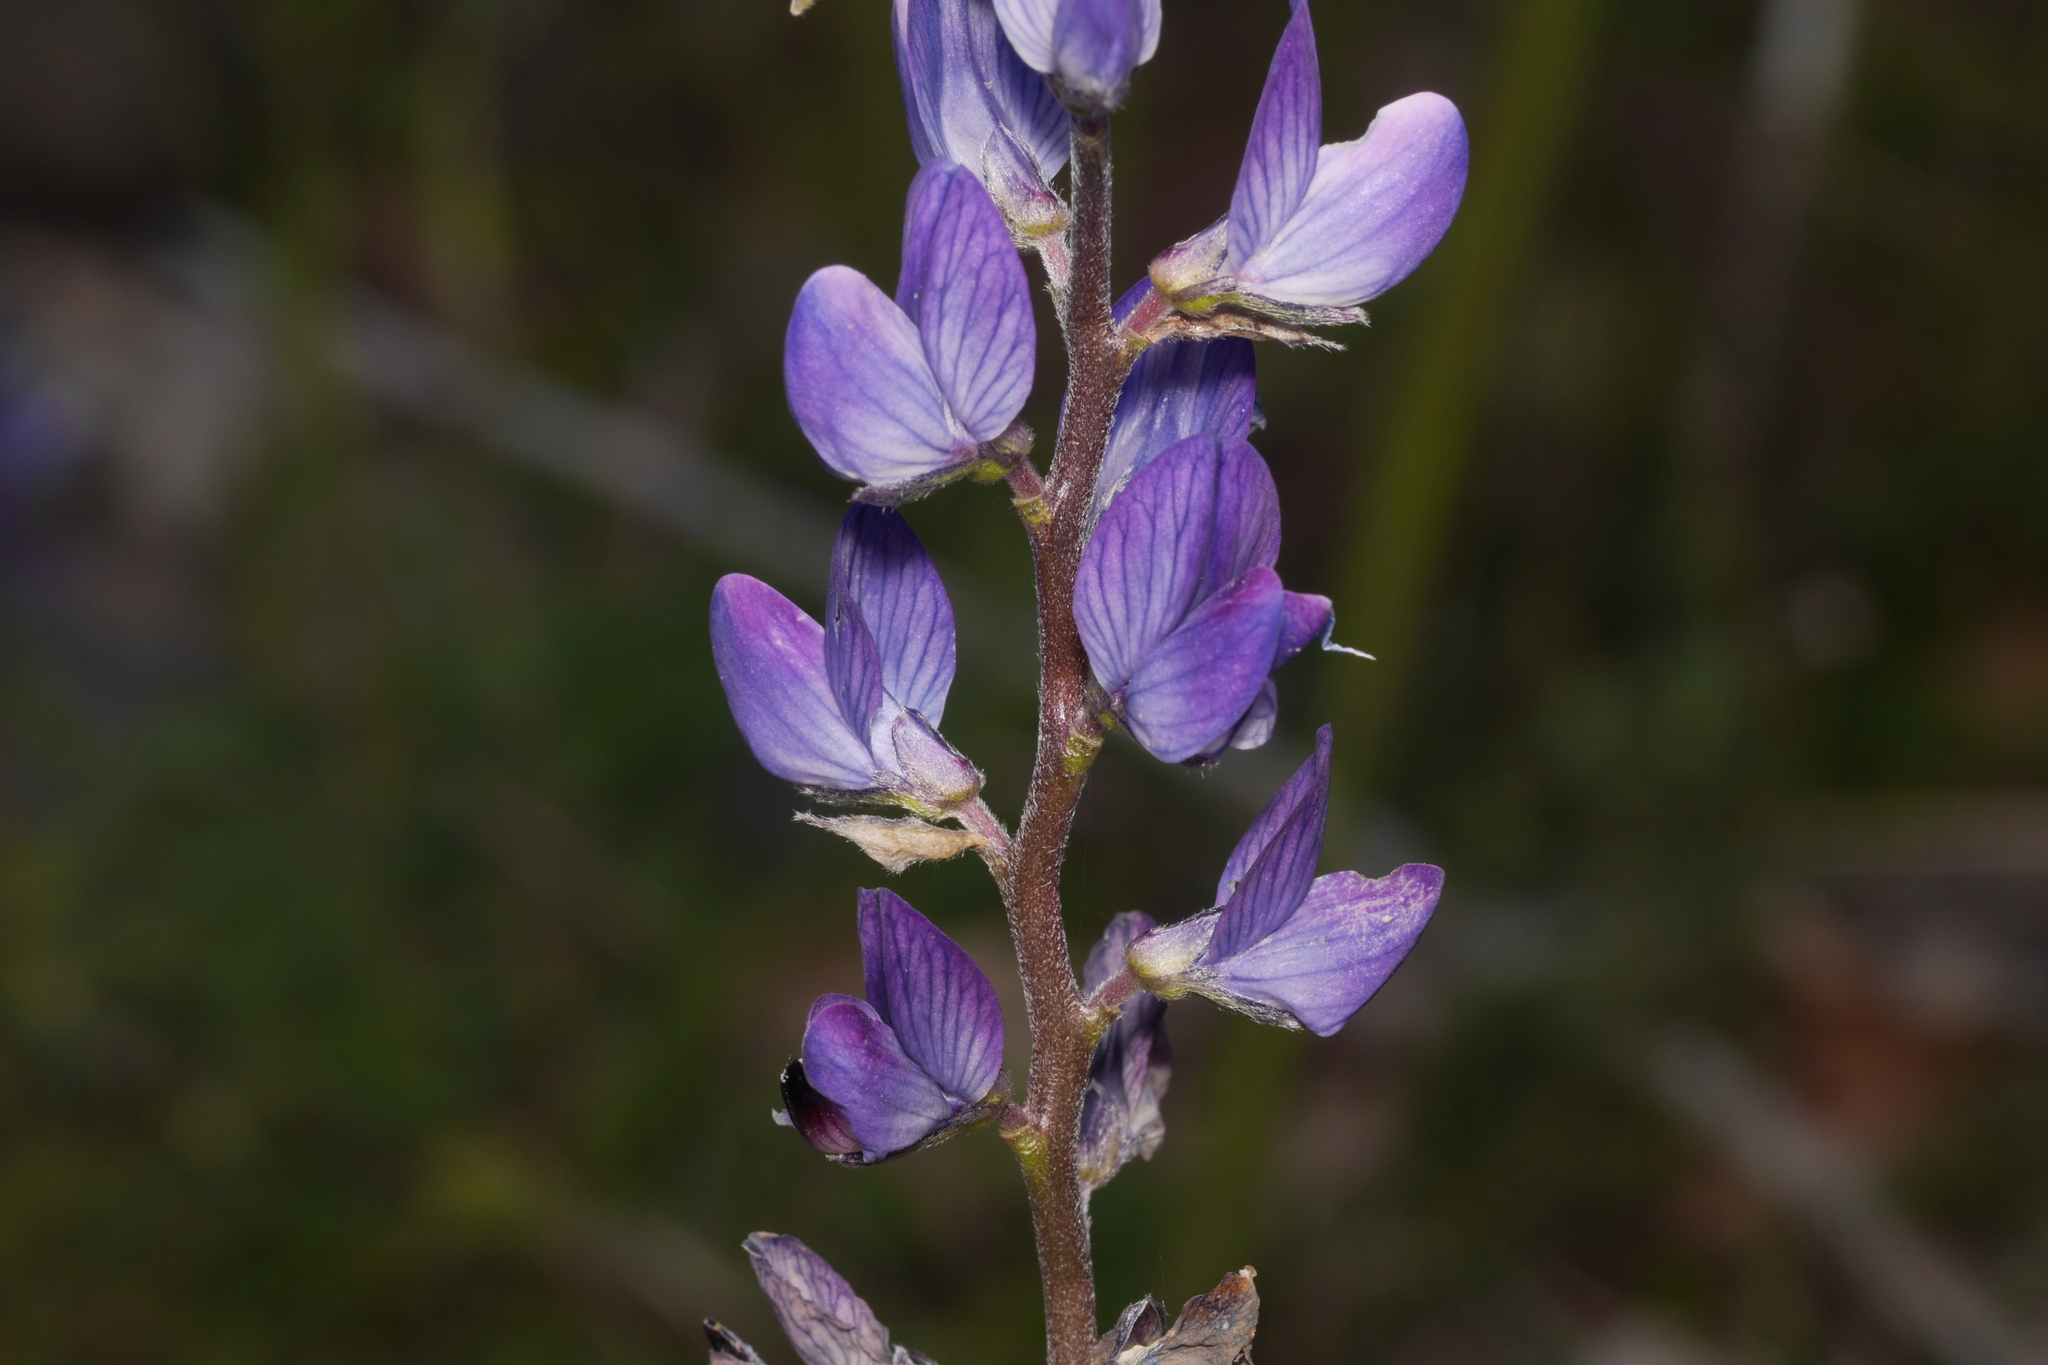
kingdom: Plantae
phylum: Tracheophyta
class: Magnoliopsida
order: Fabales
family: Fabaceae
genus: Lupinus
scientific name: Lupinus angustifolius
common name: Narrow-leaved lupin
